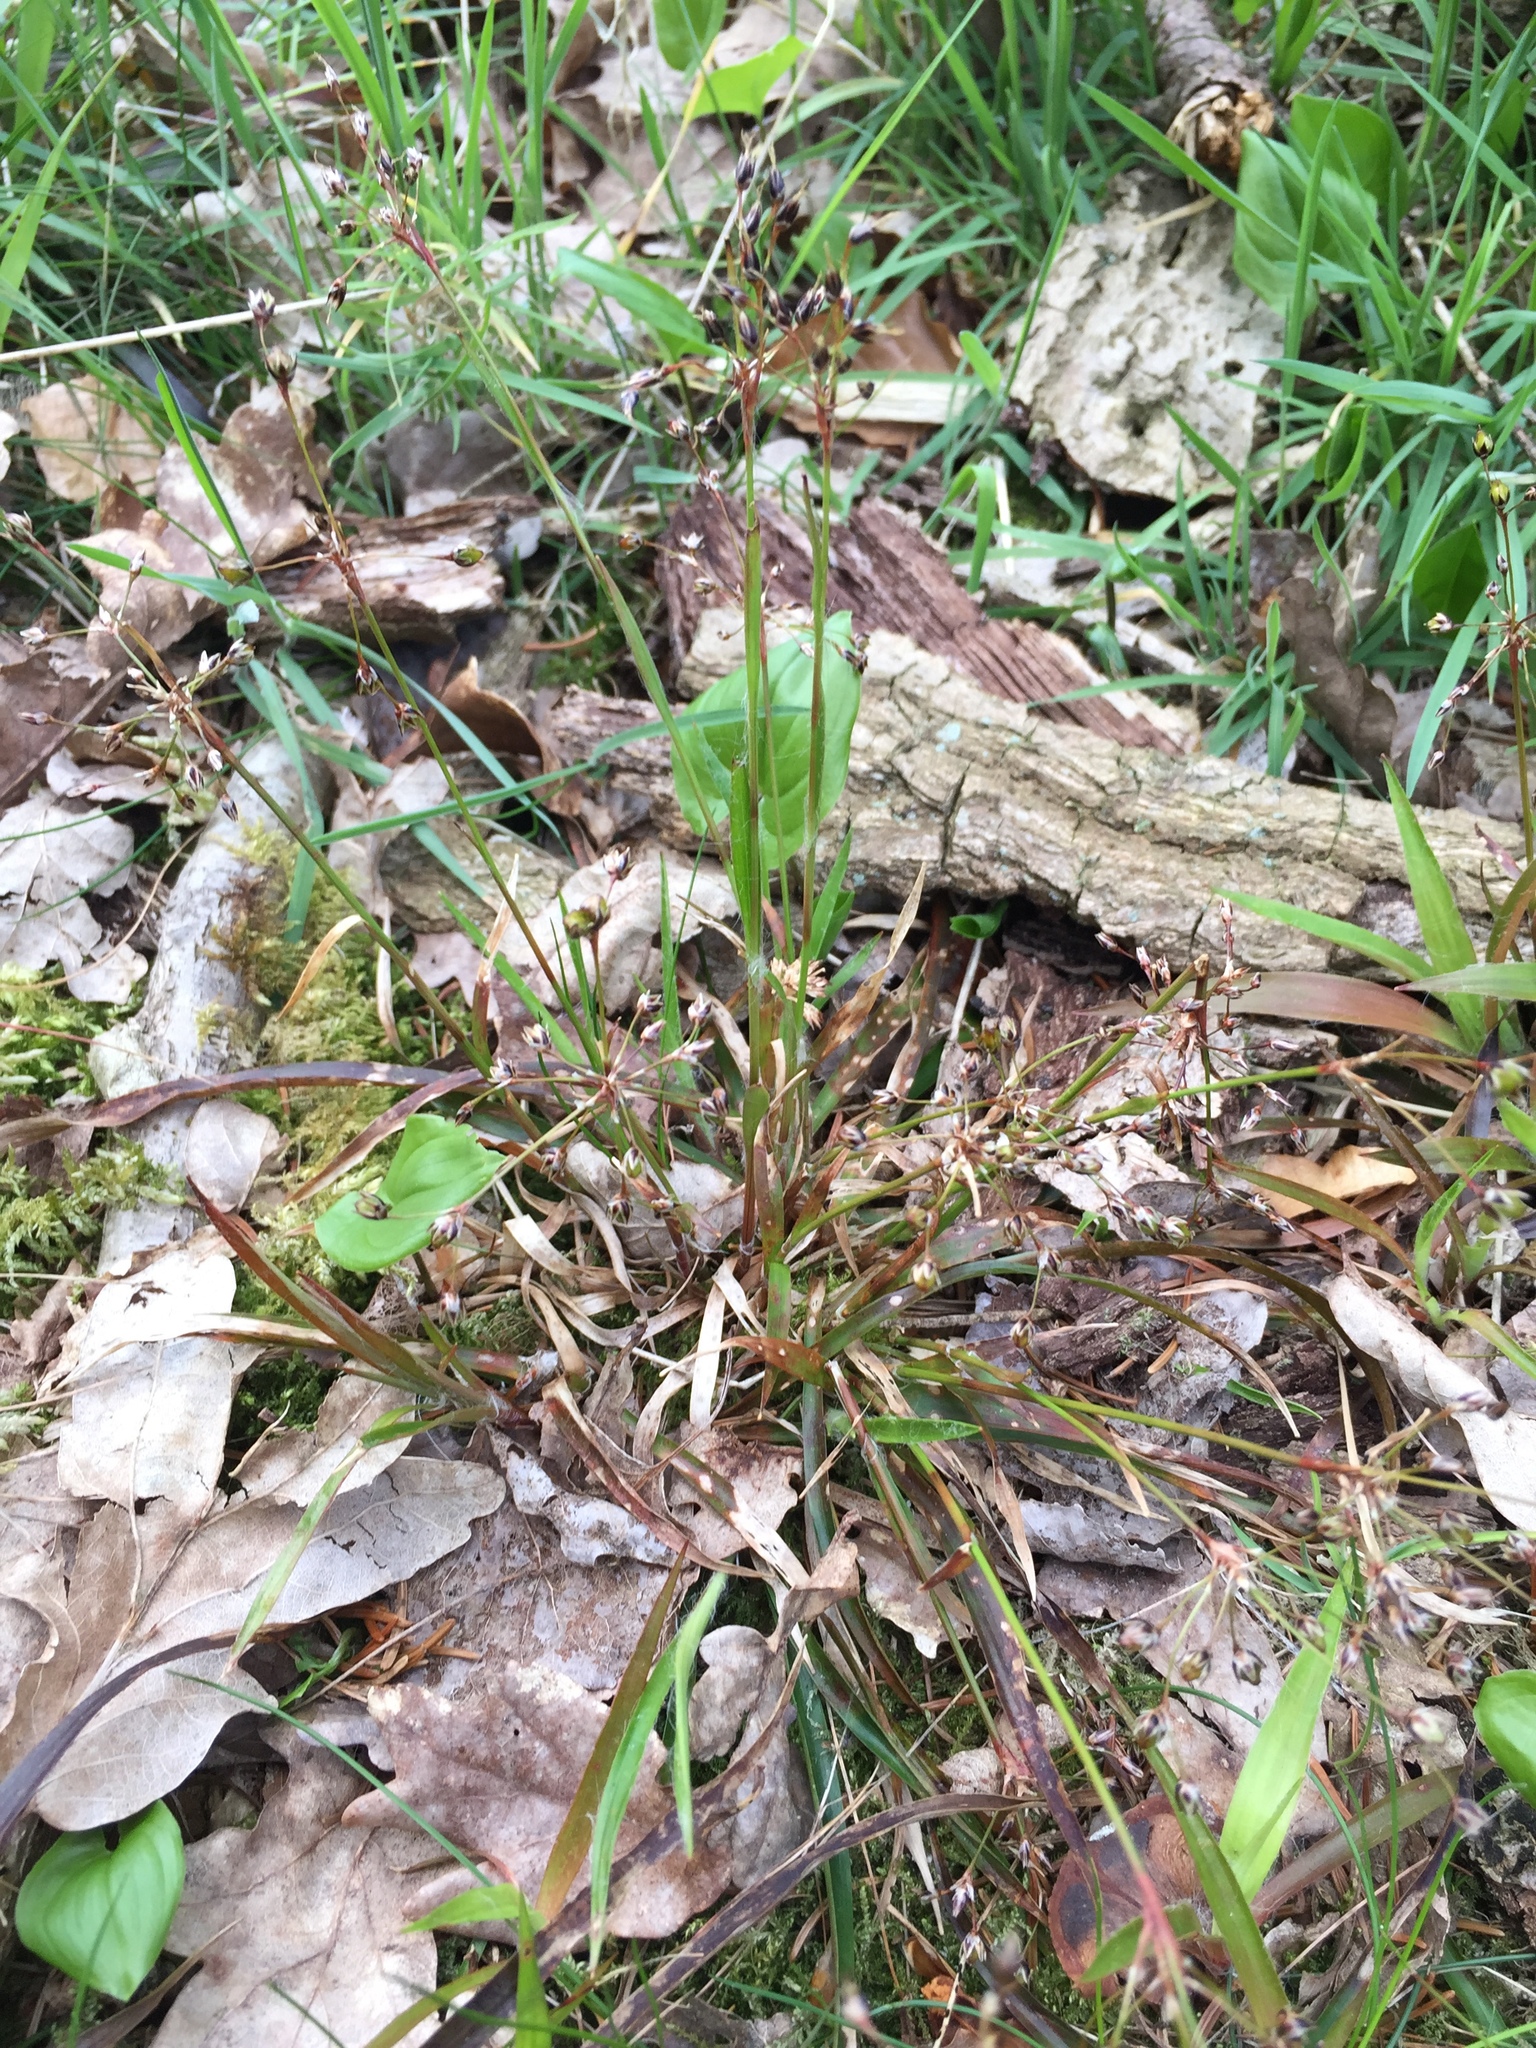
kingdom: Plantae
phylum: Tracheophyta
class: Liliopsida
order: Poales
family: Juncaceae
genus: Luzula
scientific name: Luzula pilosa
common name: Hairy wood-rush
